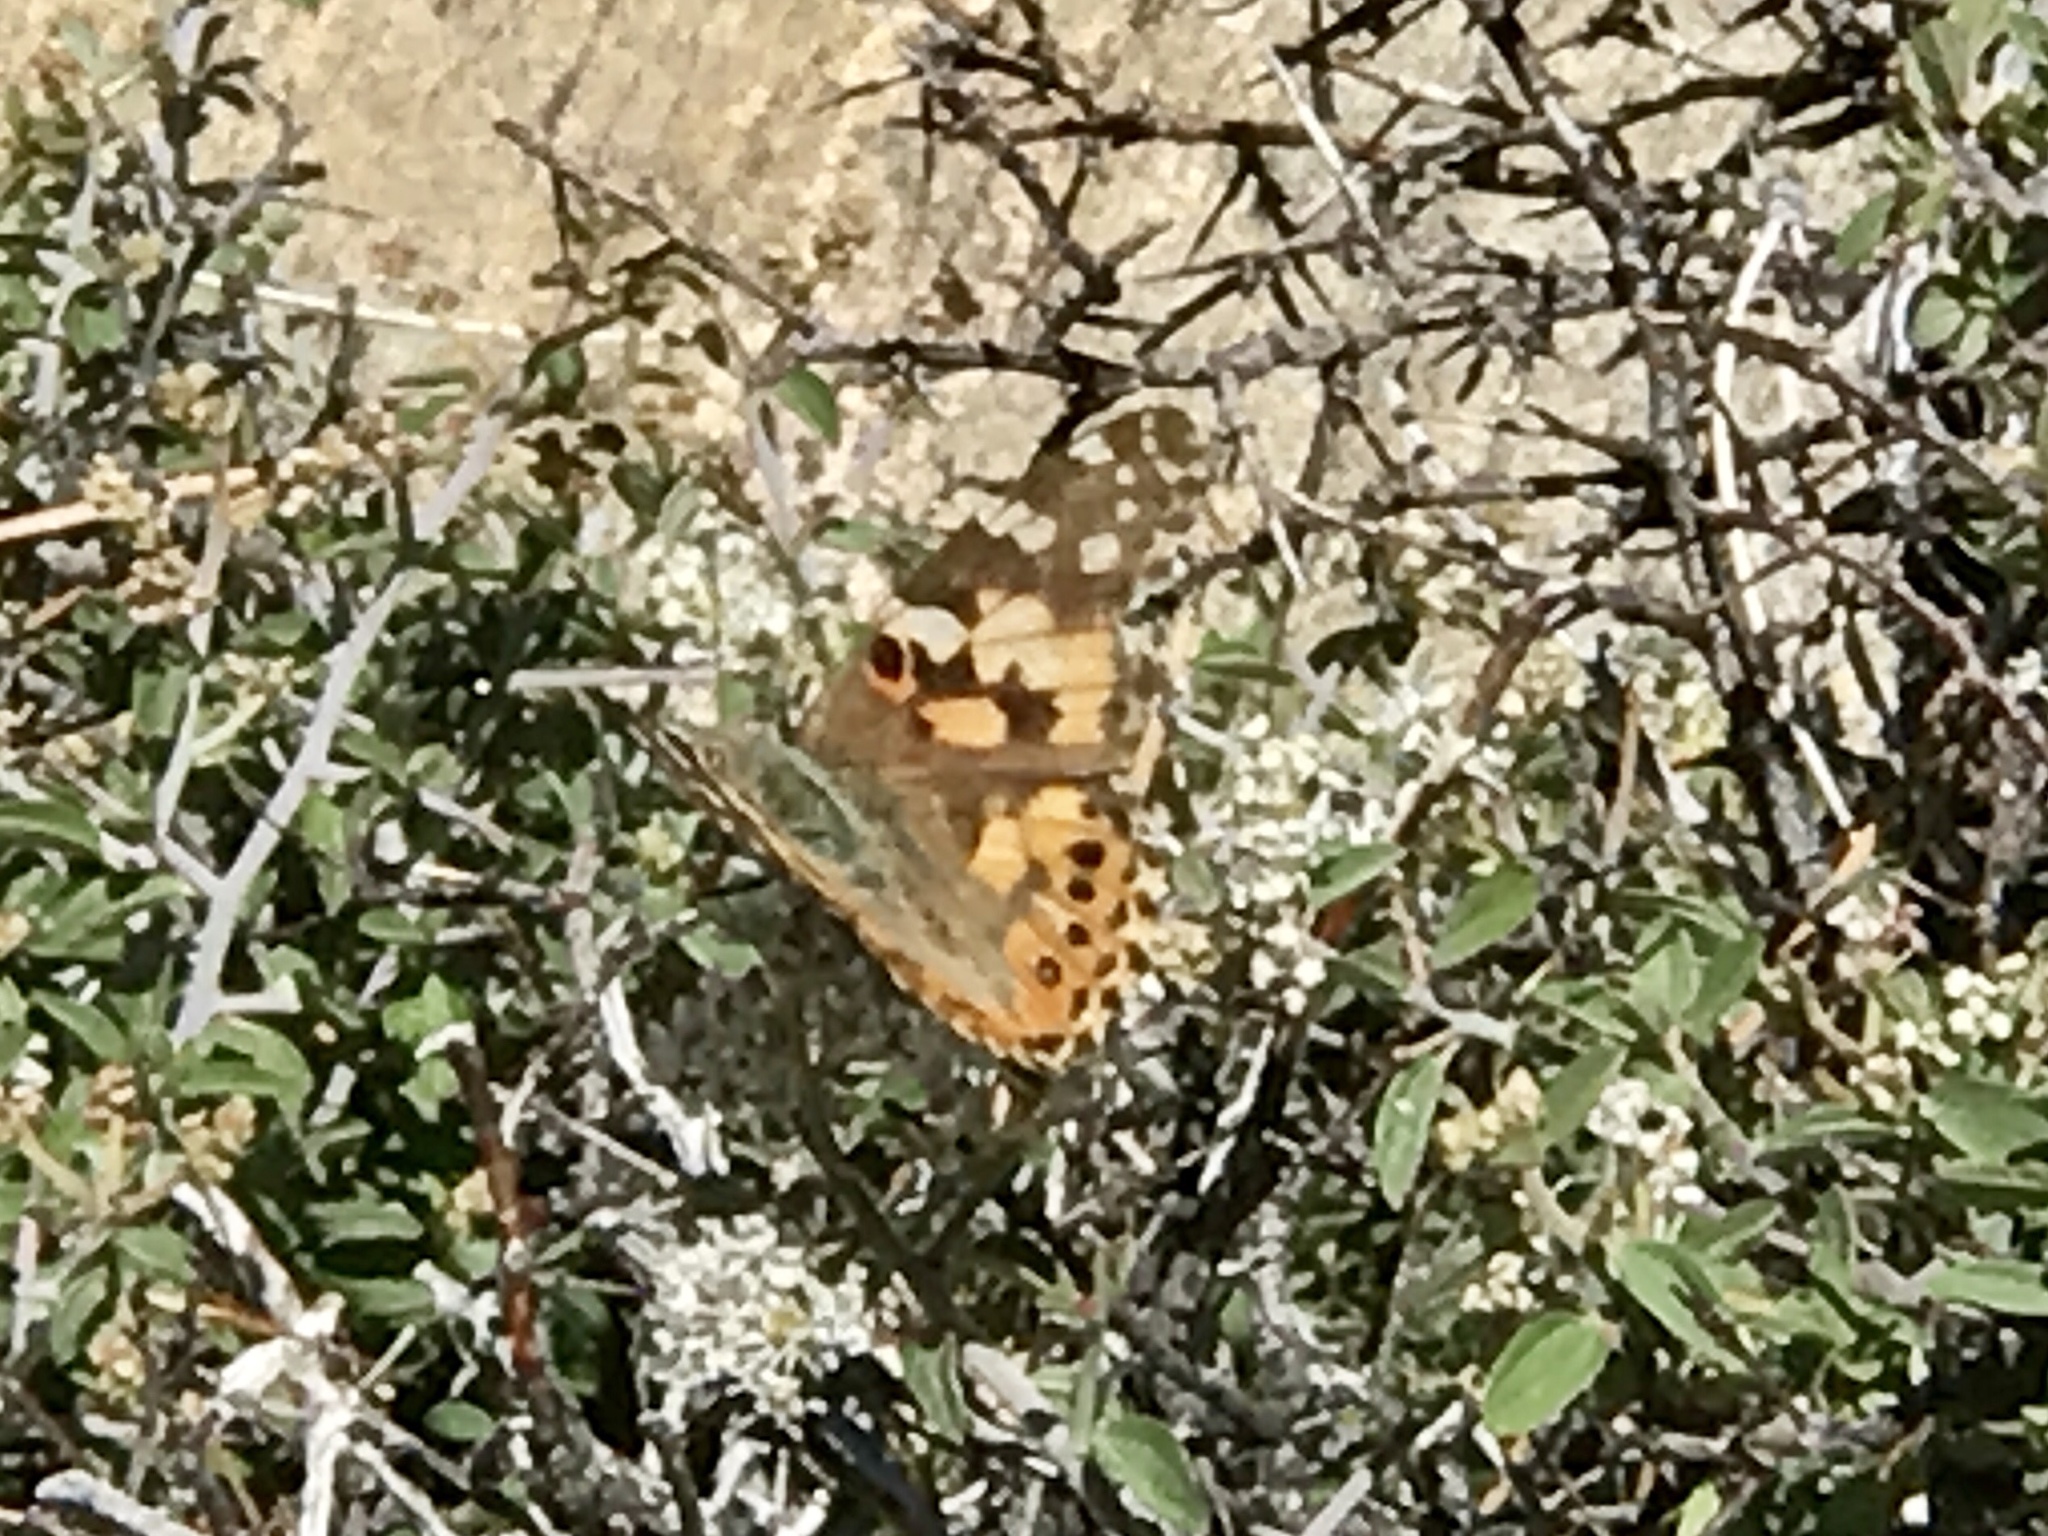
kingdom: Animalia
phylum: Arthropoda
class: Insecta
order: Lepidoptera
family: Nymphalidae
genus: Vanessa
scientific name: Vanessa cardui
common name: Painted lady
